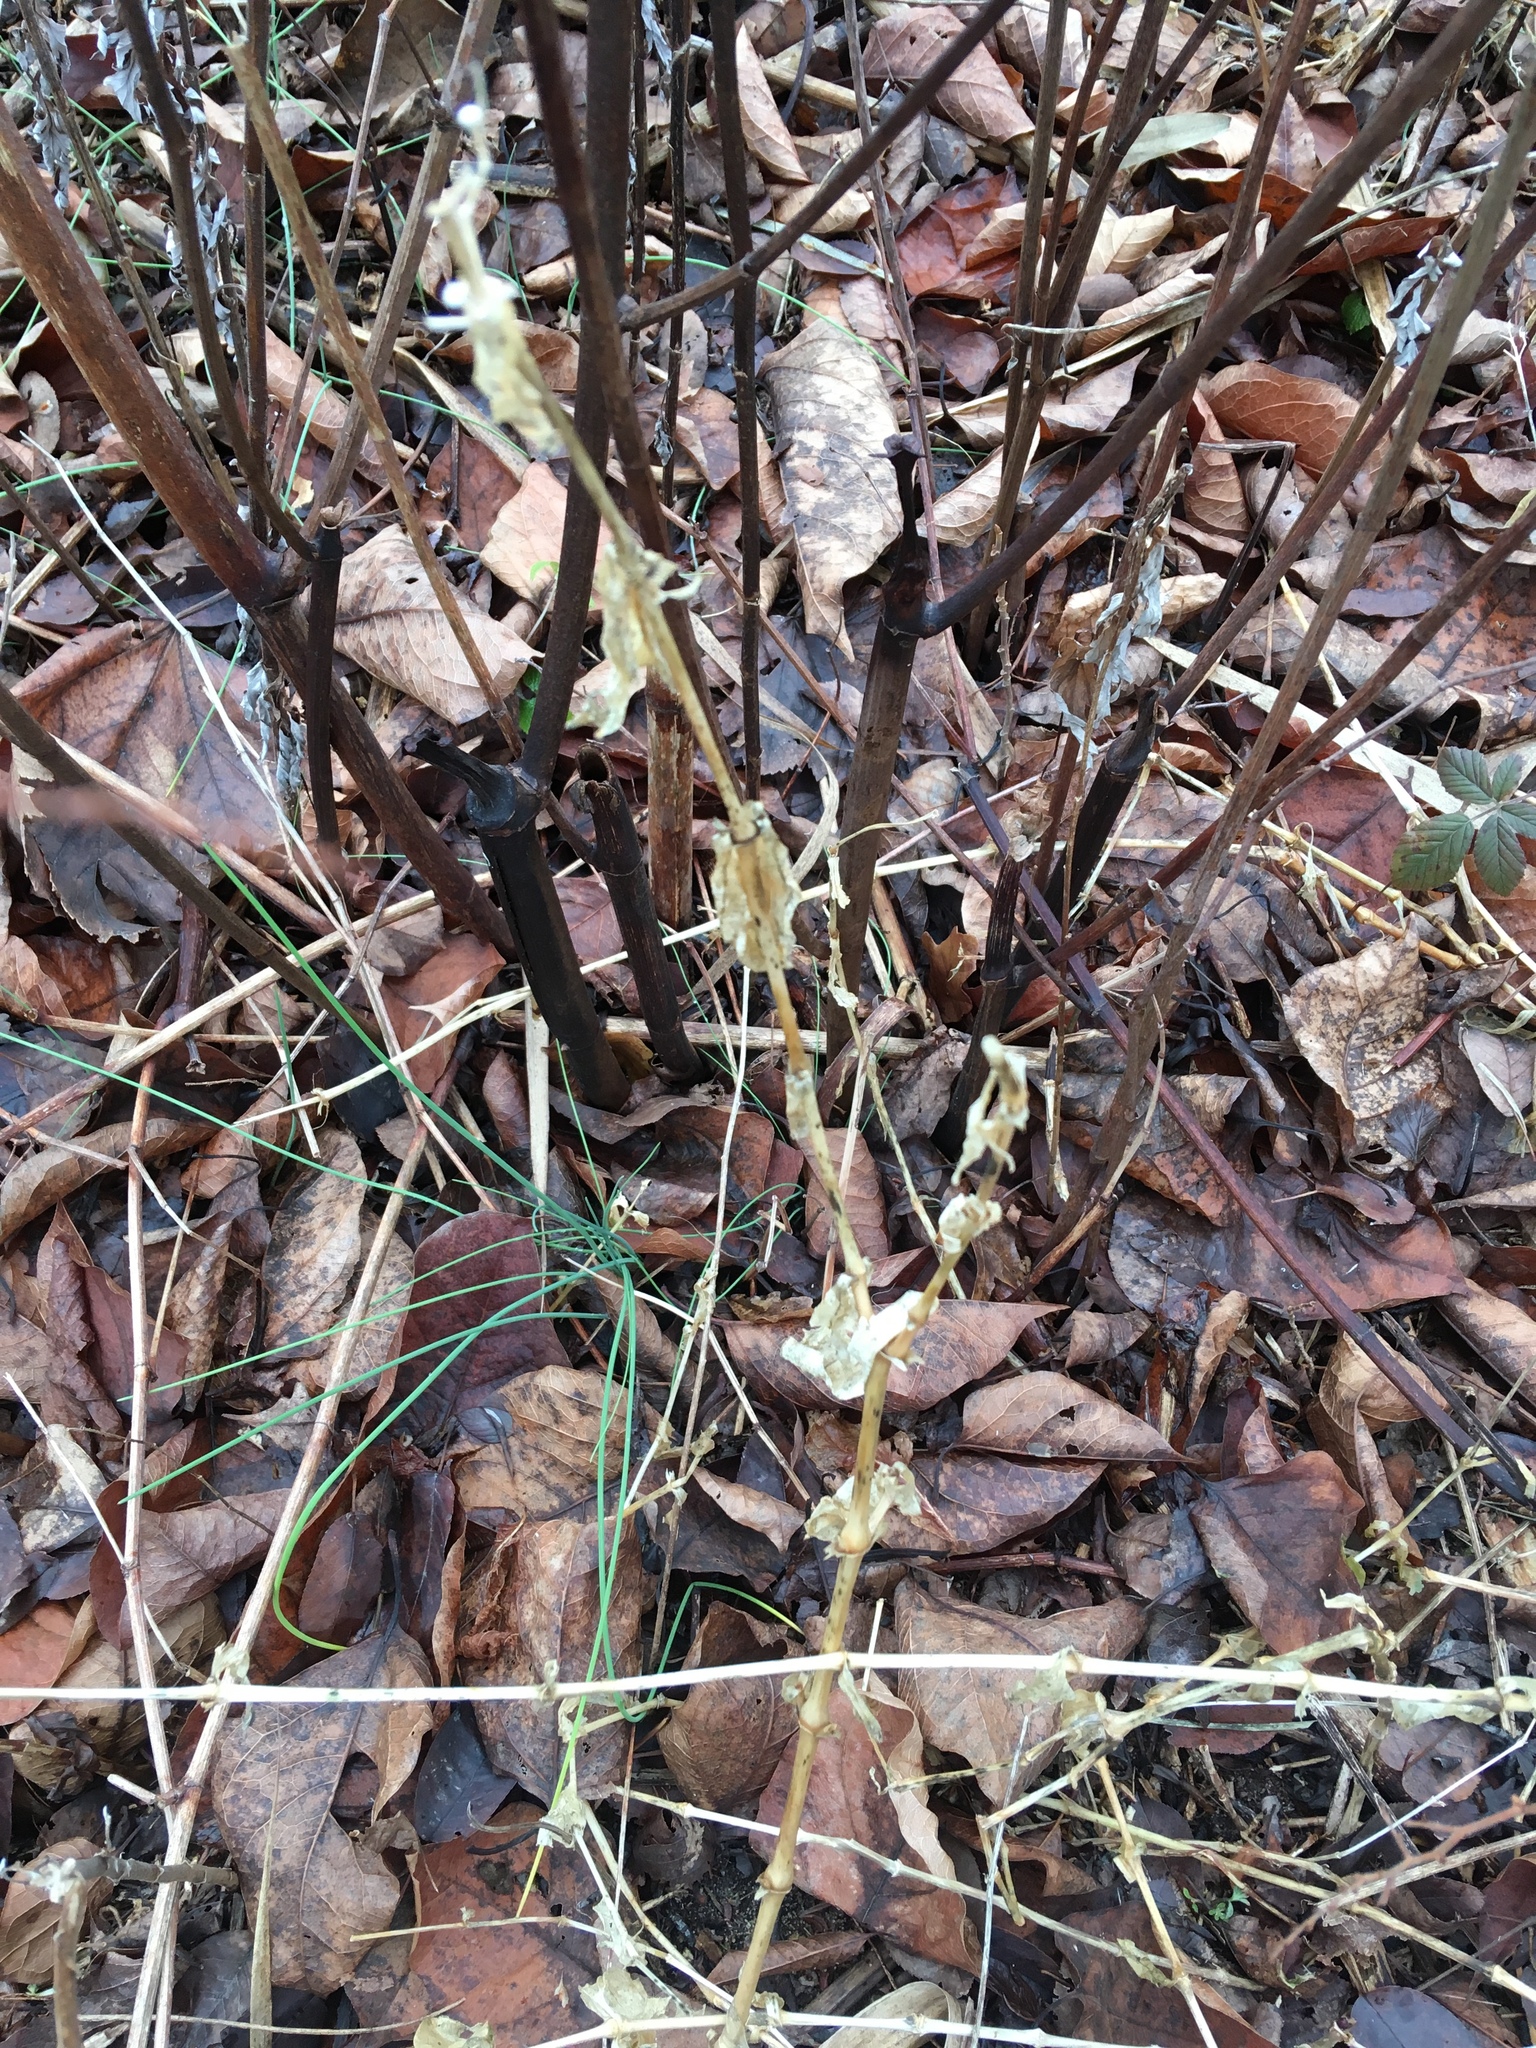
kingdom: Plantae
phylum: Tracheophyta
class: Magnoliopsida
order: Caryophyllales
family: Caryophyllaceae
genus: Saponaria
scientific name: Saponaria officinalis
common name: Soapwort
